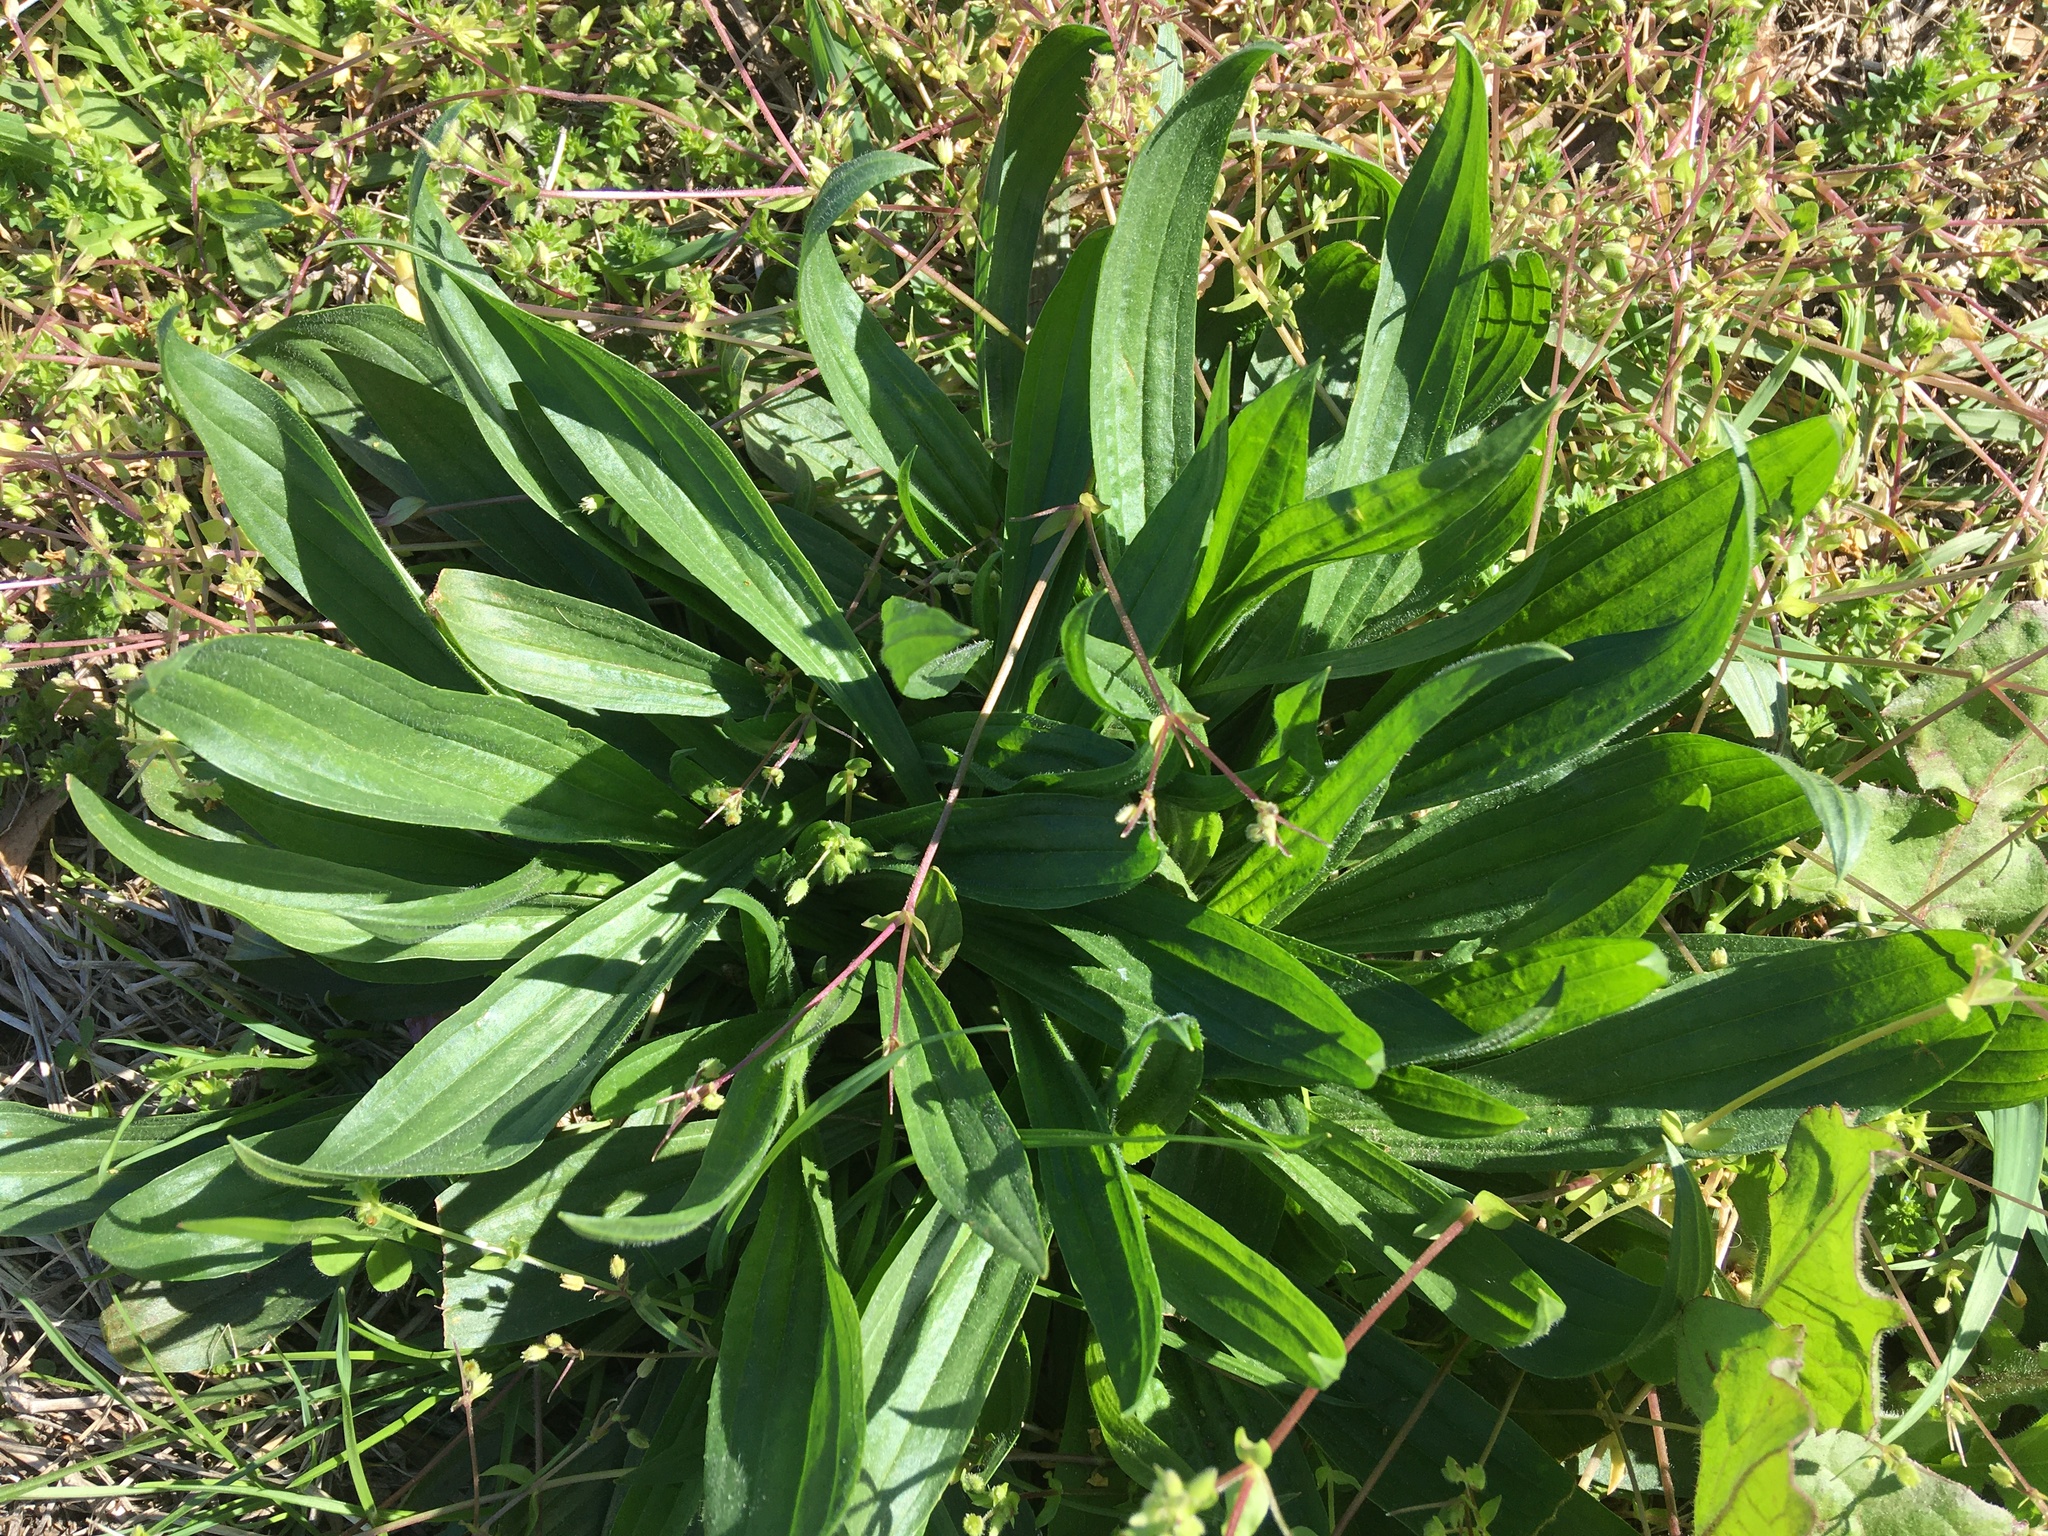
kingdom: Plantae
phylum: Tracheophyta
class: Magnoliopsida
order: Lamiales
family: Plantaginaceae
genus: Plantago
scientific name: Plantago lanceolata
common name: Ribwort plantain
